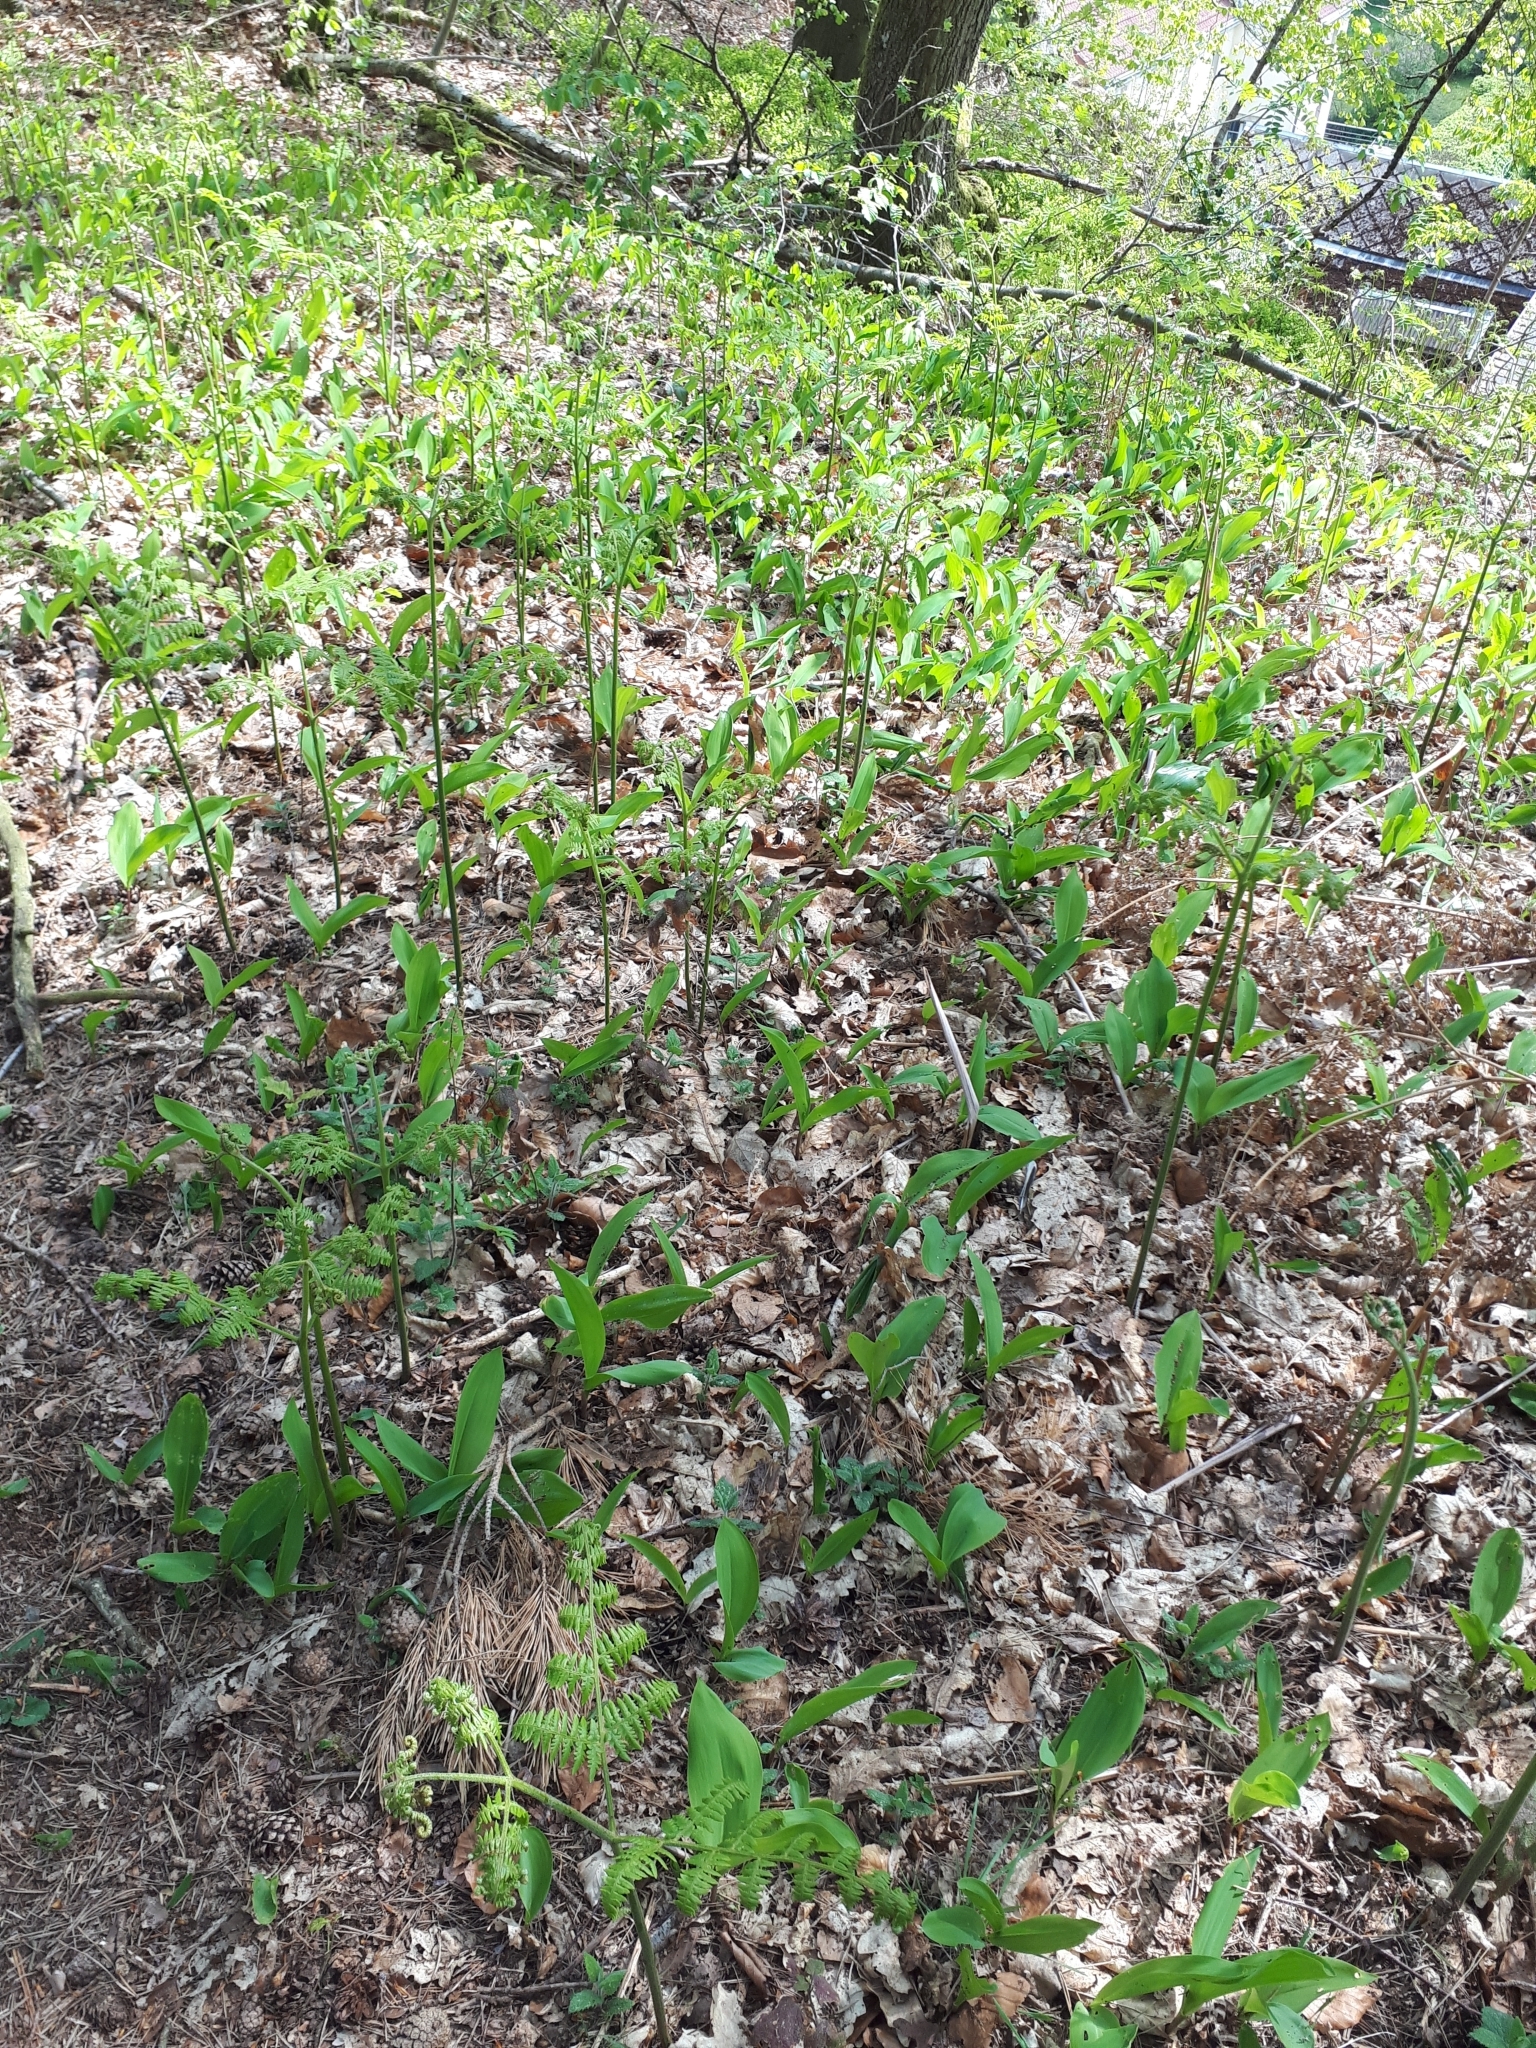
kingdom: Plantae
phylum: Tracheophyta
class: Liliopsida
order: Asparagales
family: Asparagaceae
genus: Convallaria
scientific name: Convallaria majalis
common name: Lily-of-the-valley
